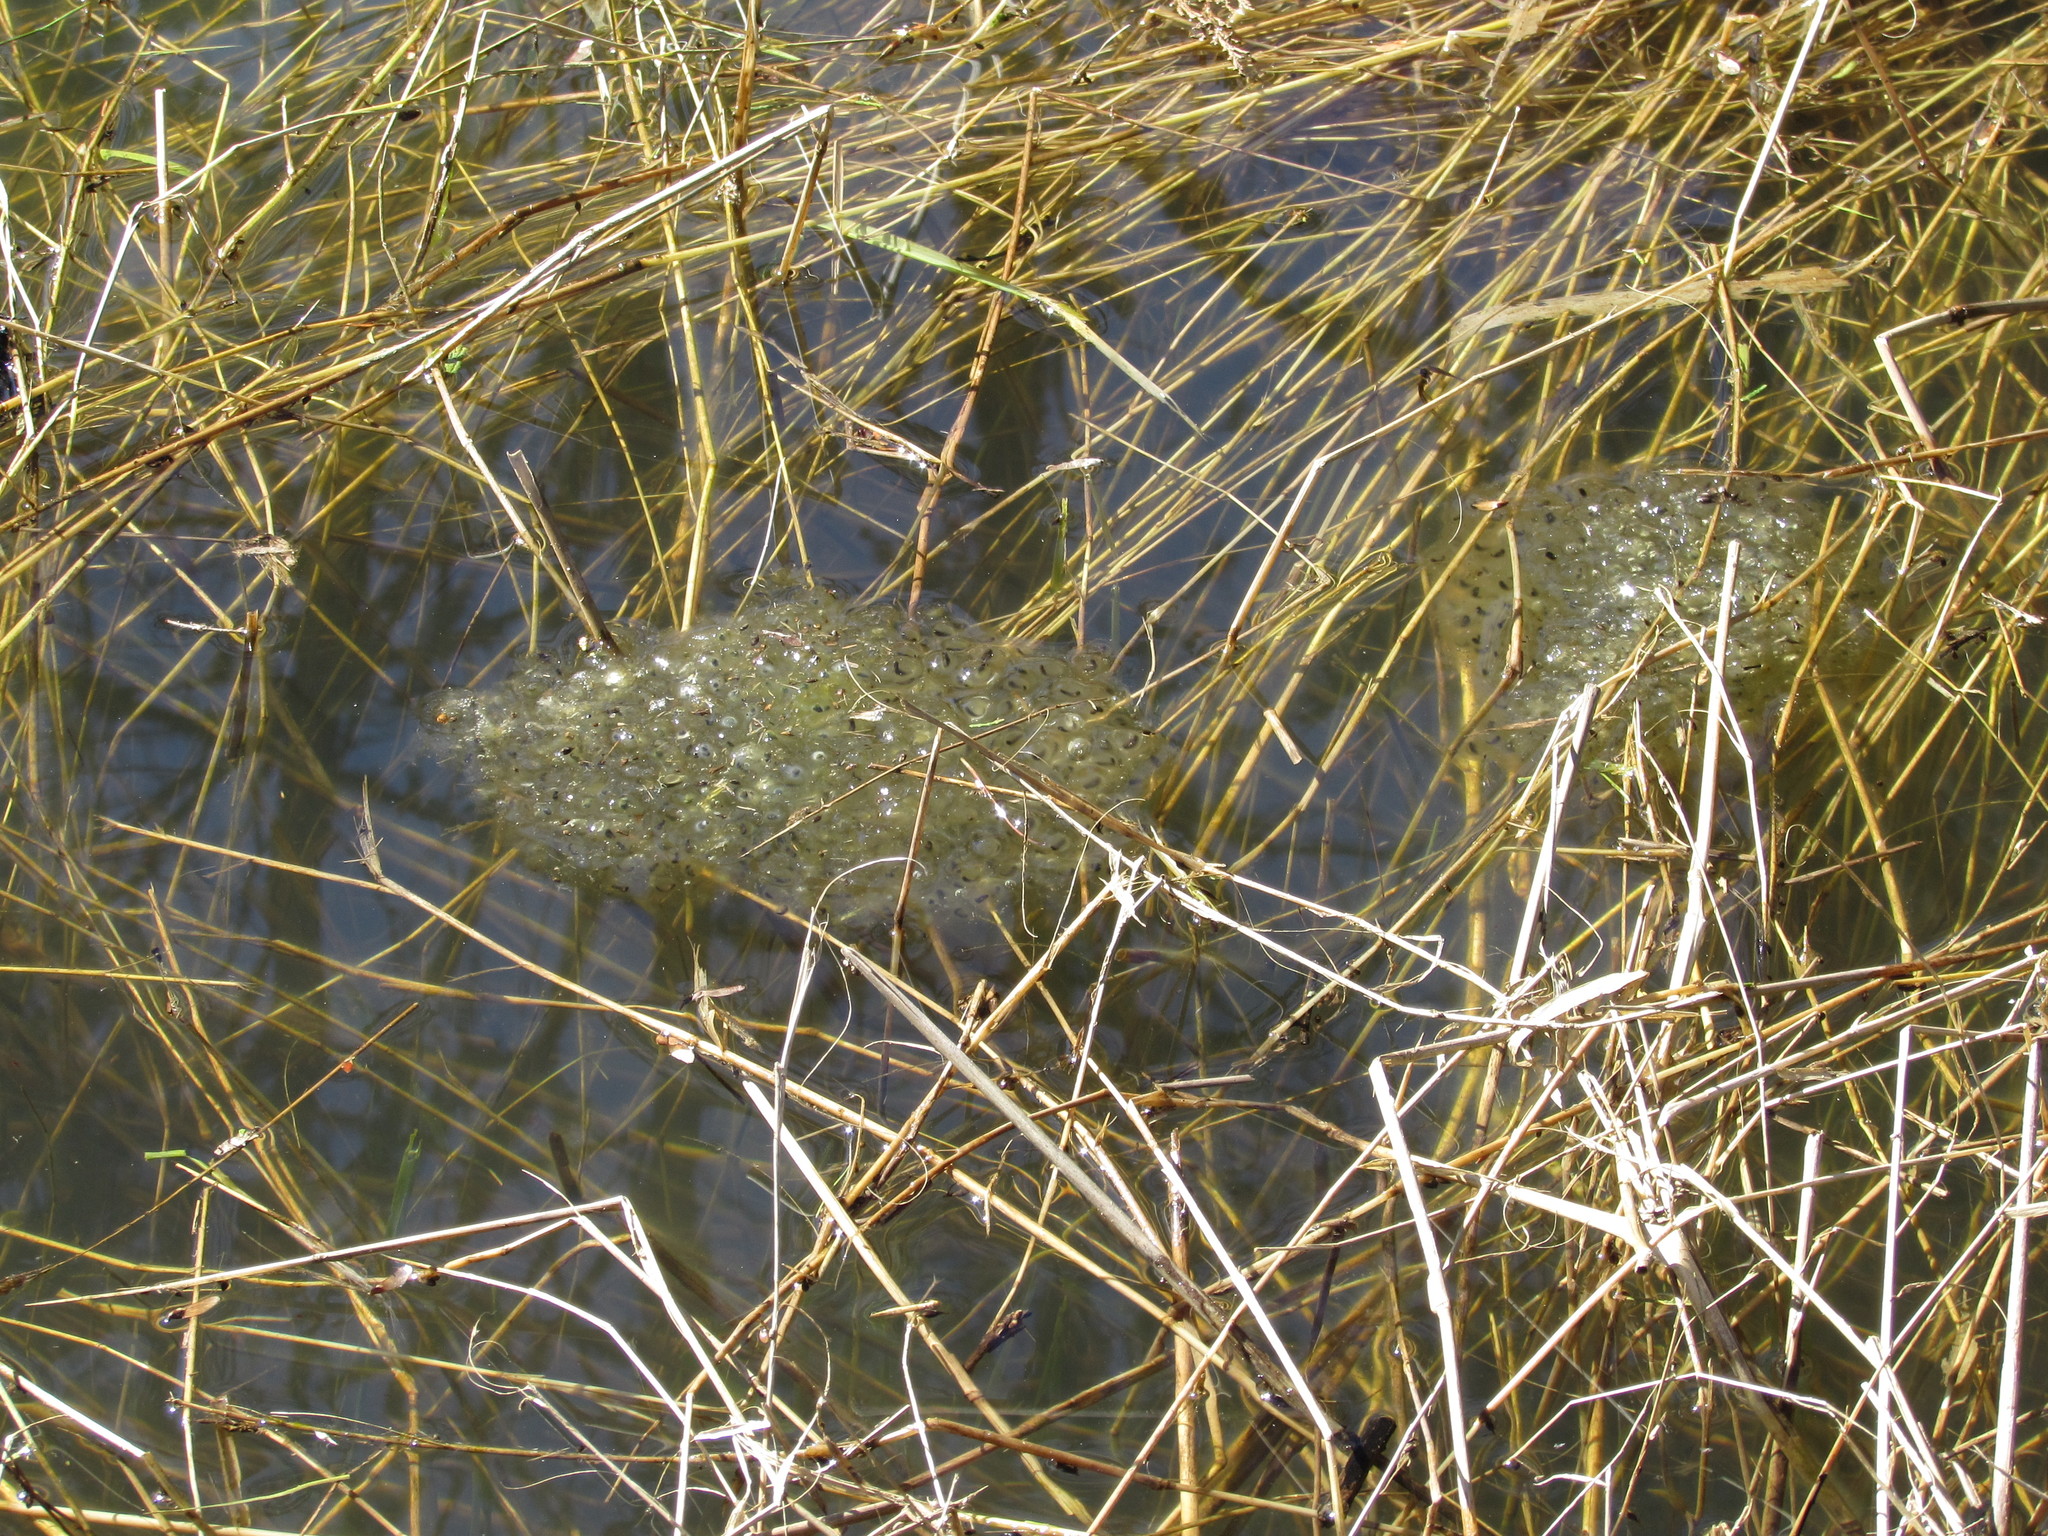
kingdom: Animalia
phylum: Chordata
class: Amphibia
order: Anura
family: Ranidae
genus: Rana
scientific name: Rana aurora
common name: Red-legged frog
